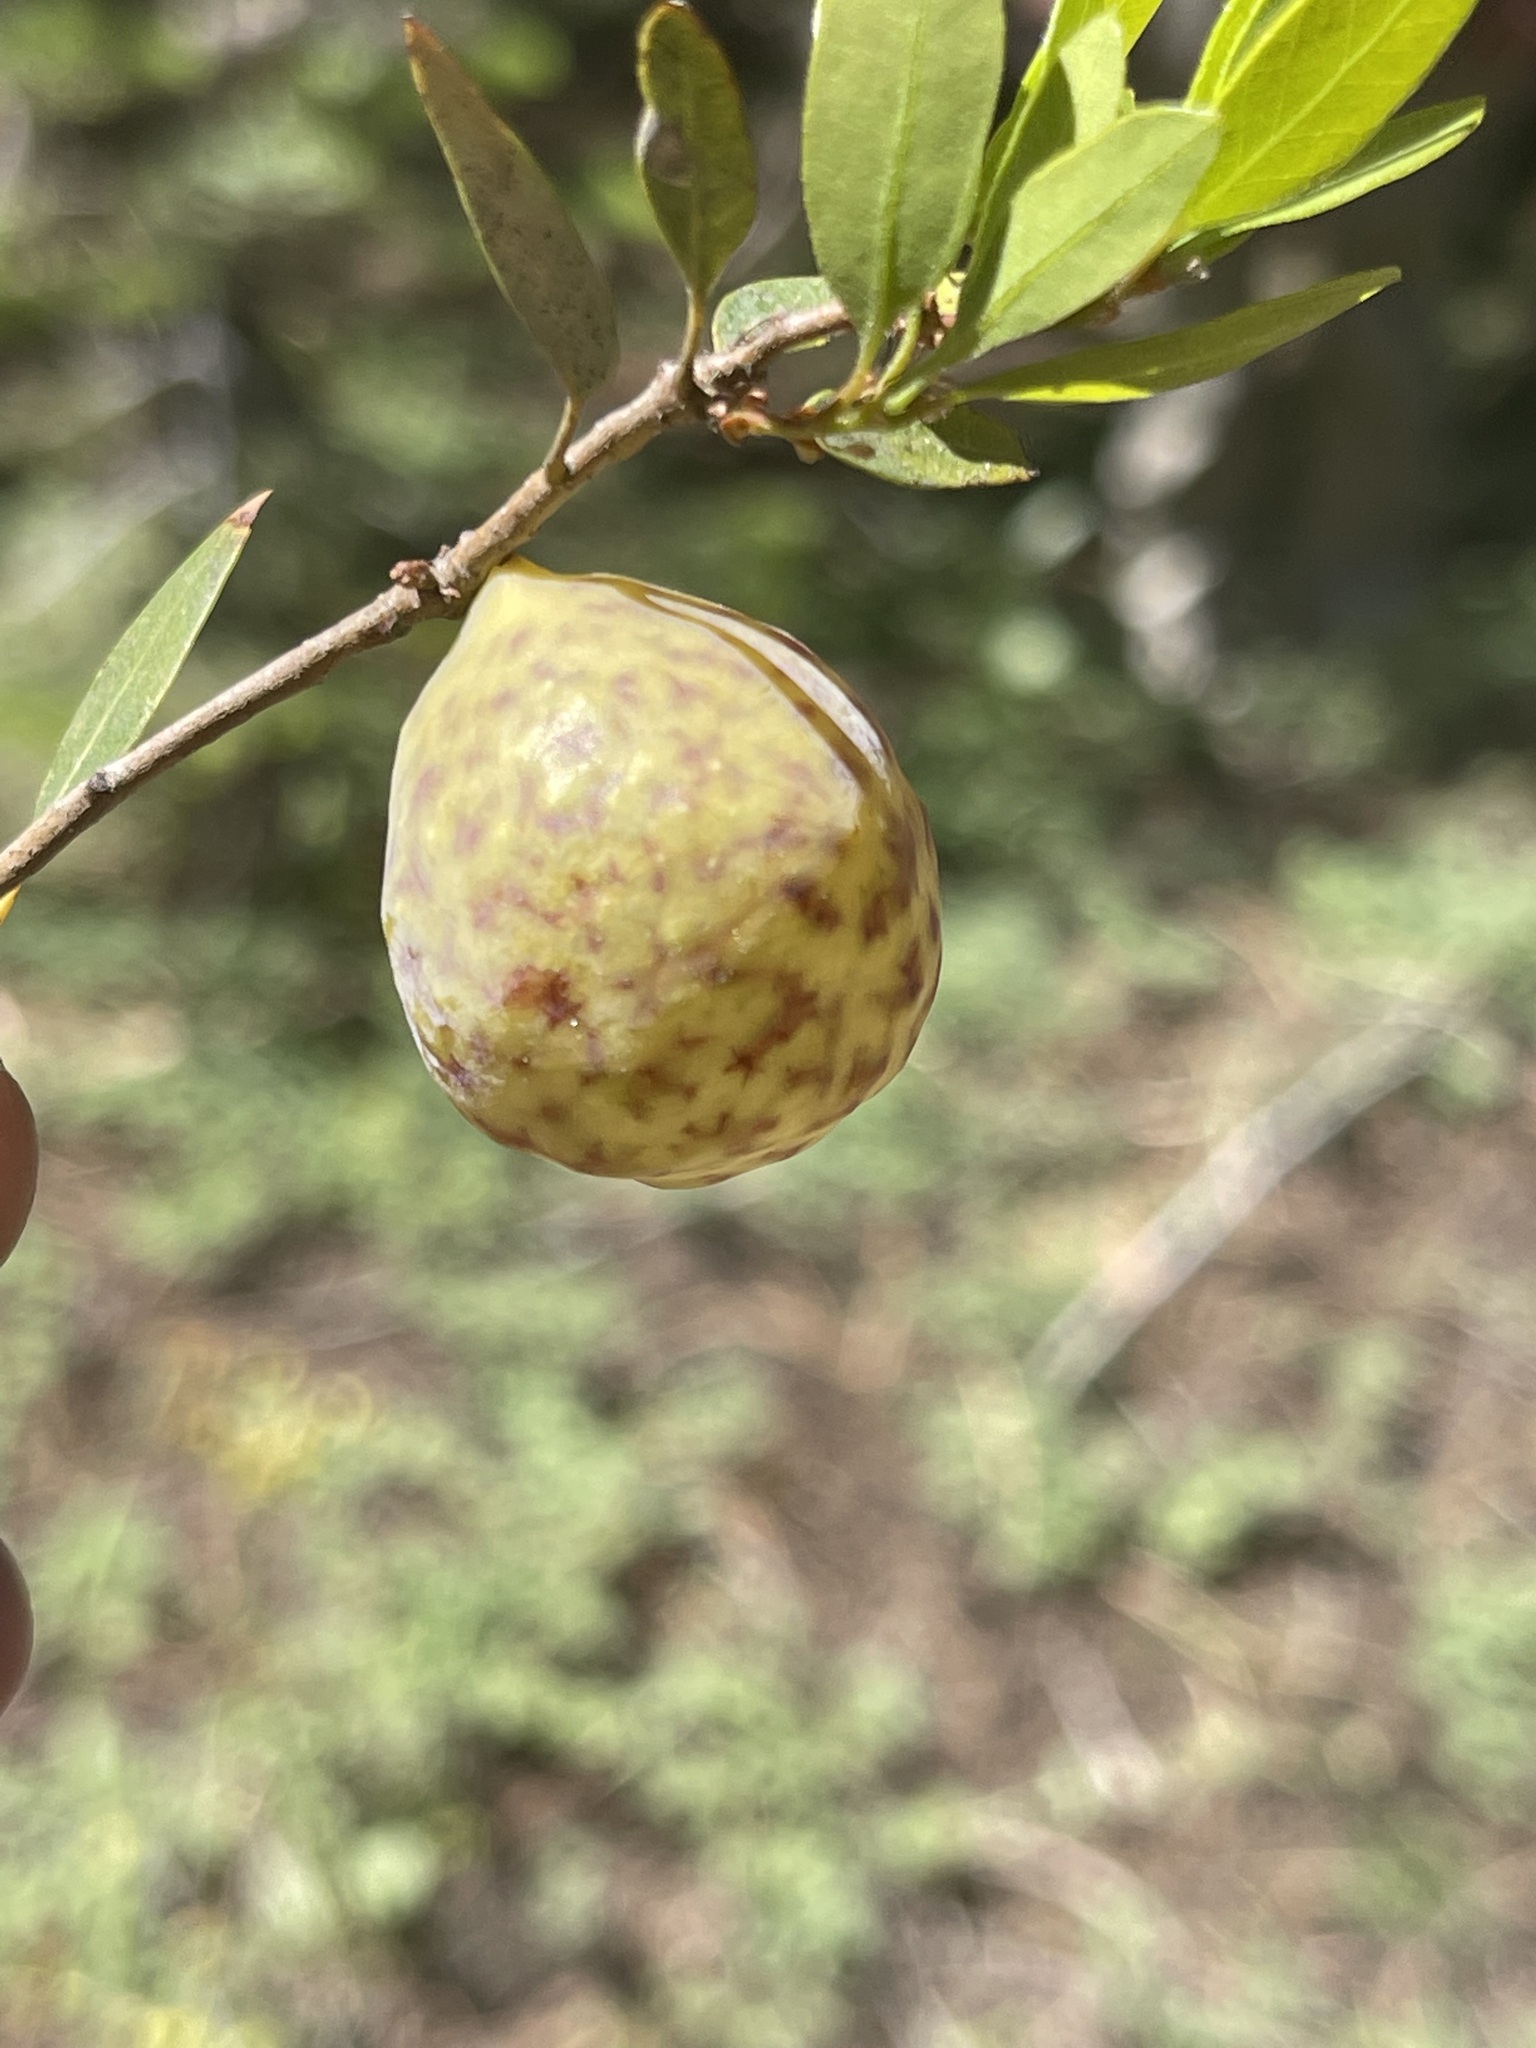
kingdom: Animalia
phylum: Arthropoda
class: Insecta
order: Hymenoptera
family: Cynipidae
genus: Andricus
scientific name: Andricus
